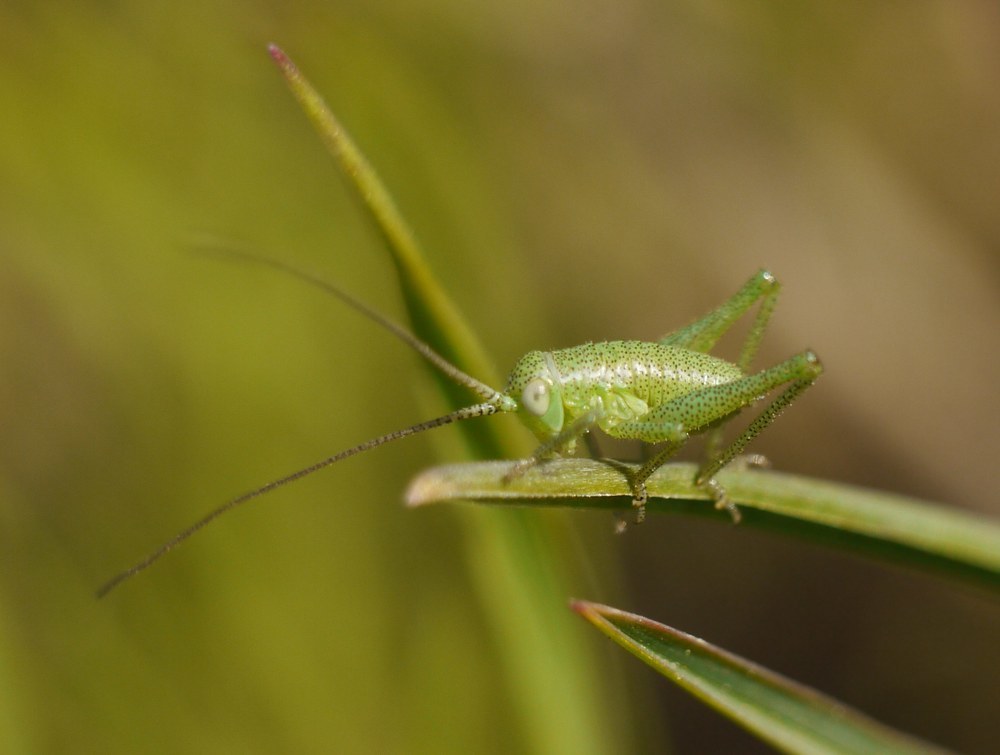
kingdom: Animalia
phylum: Arthropoda
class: Insecta
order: Orthoptera
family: Tettigoniidae
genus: Tettigonia
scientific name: Tettigonia caudata
